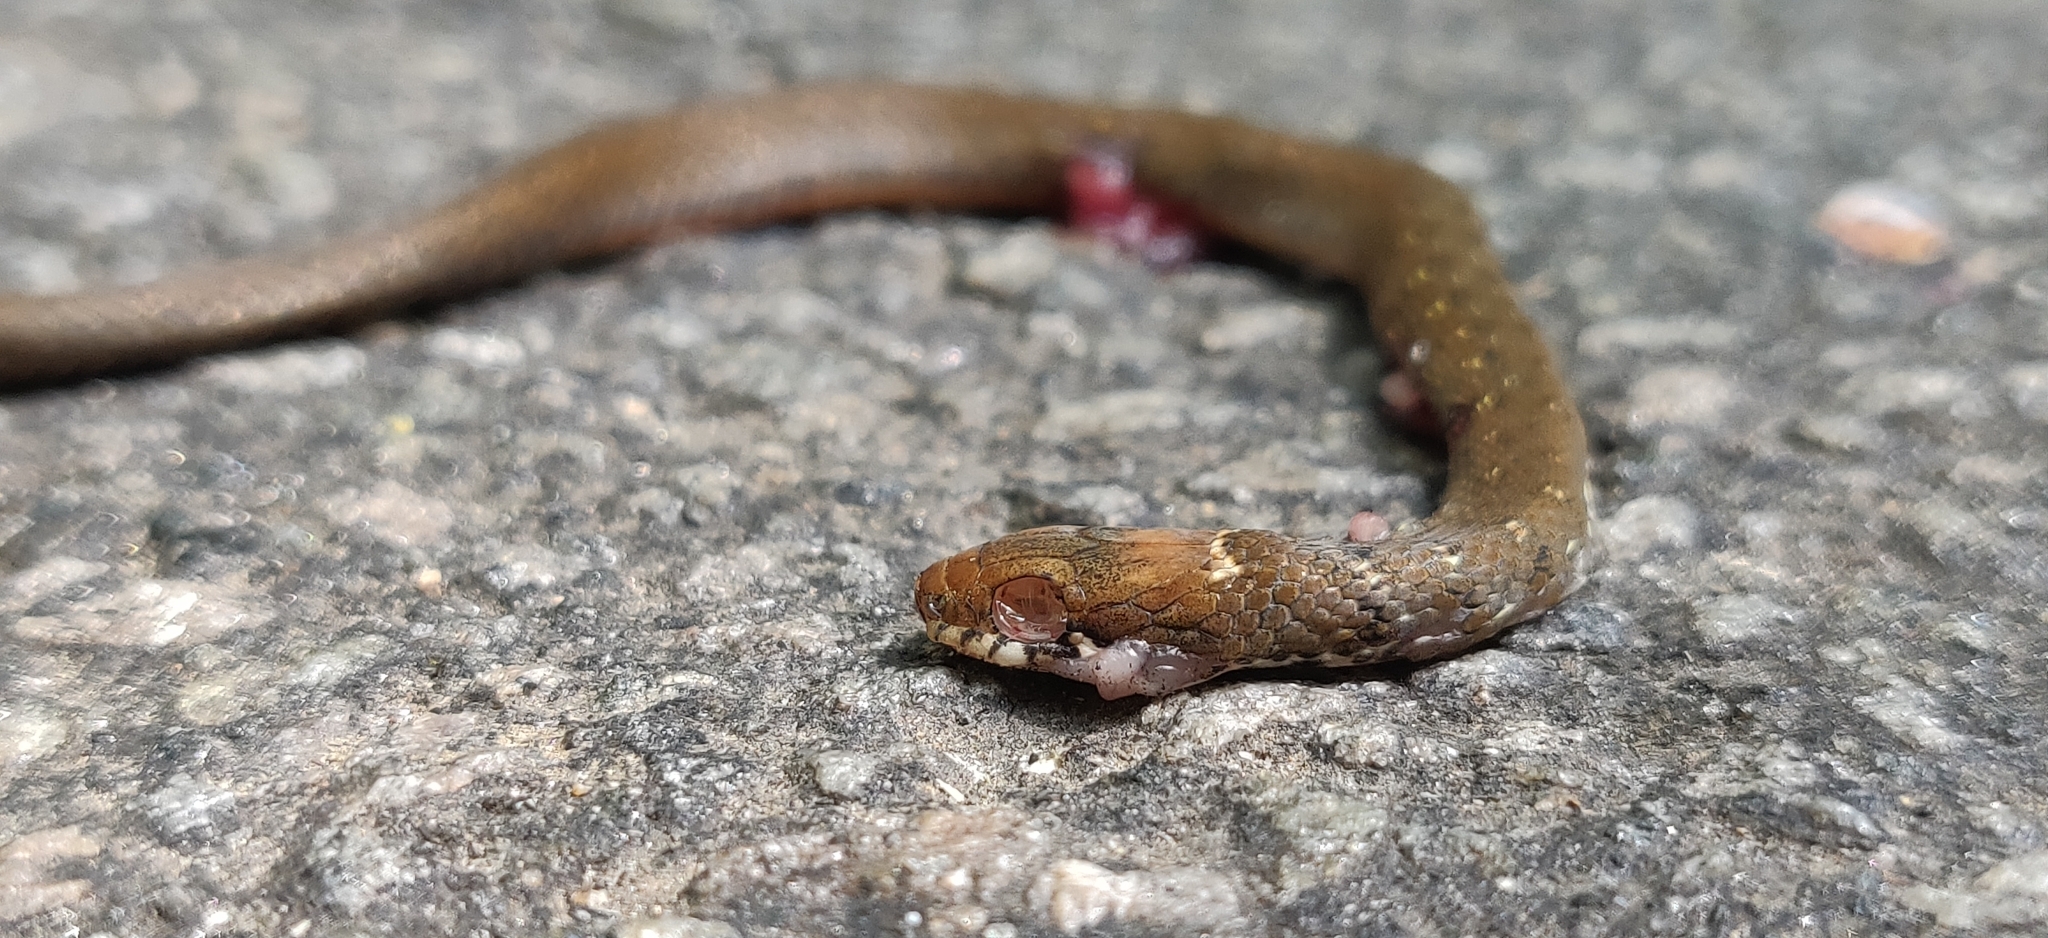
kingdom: Animalia
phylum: Chordata
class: Squamata
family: Colubridae
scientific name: Colubridae
